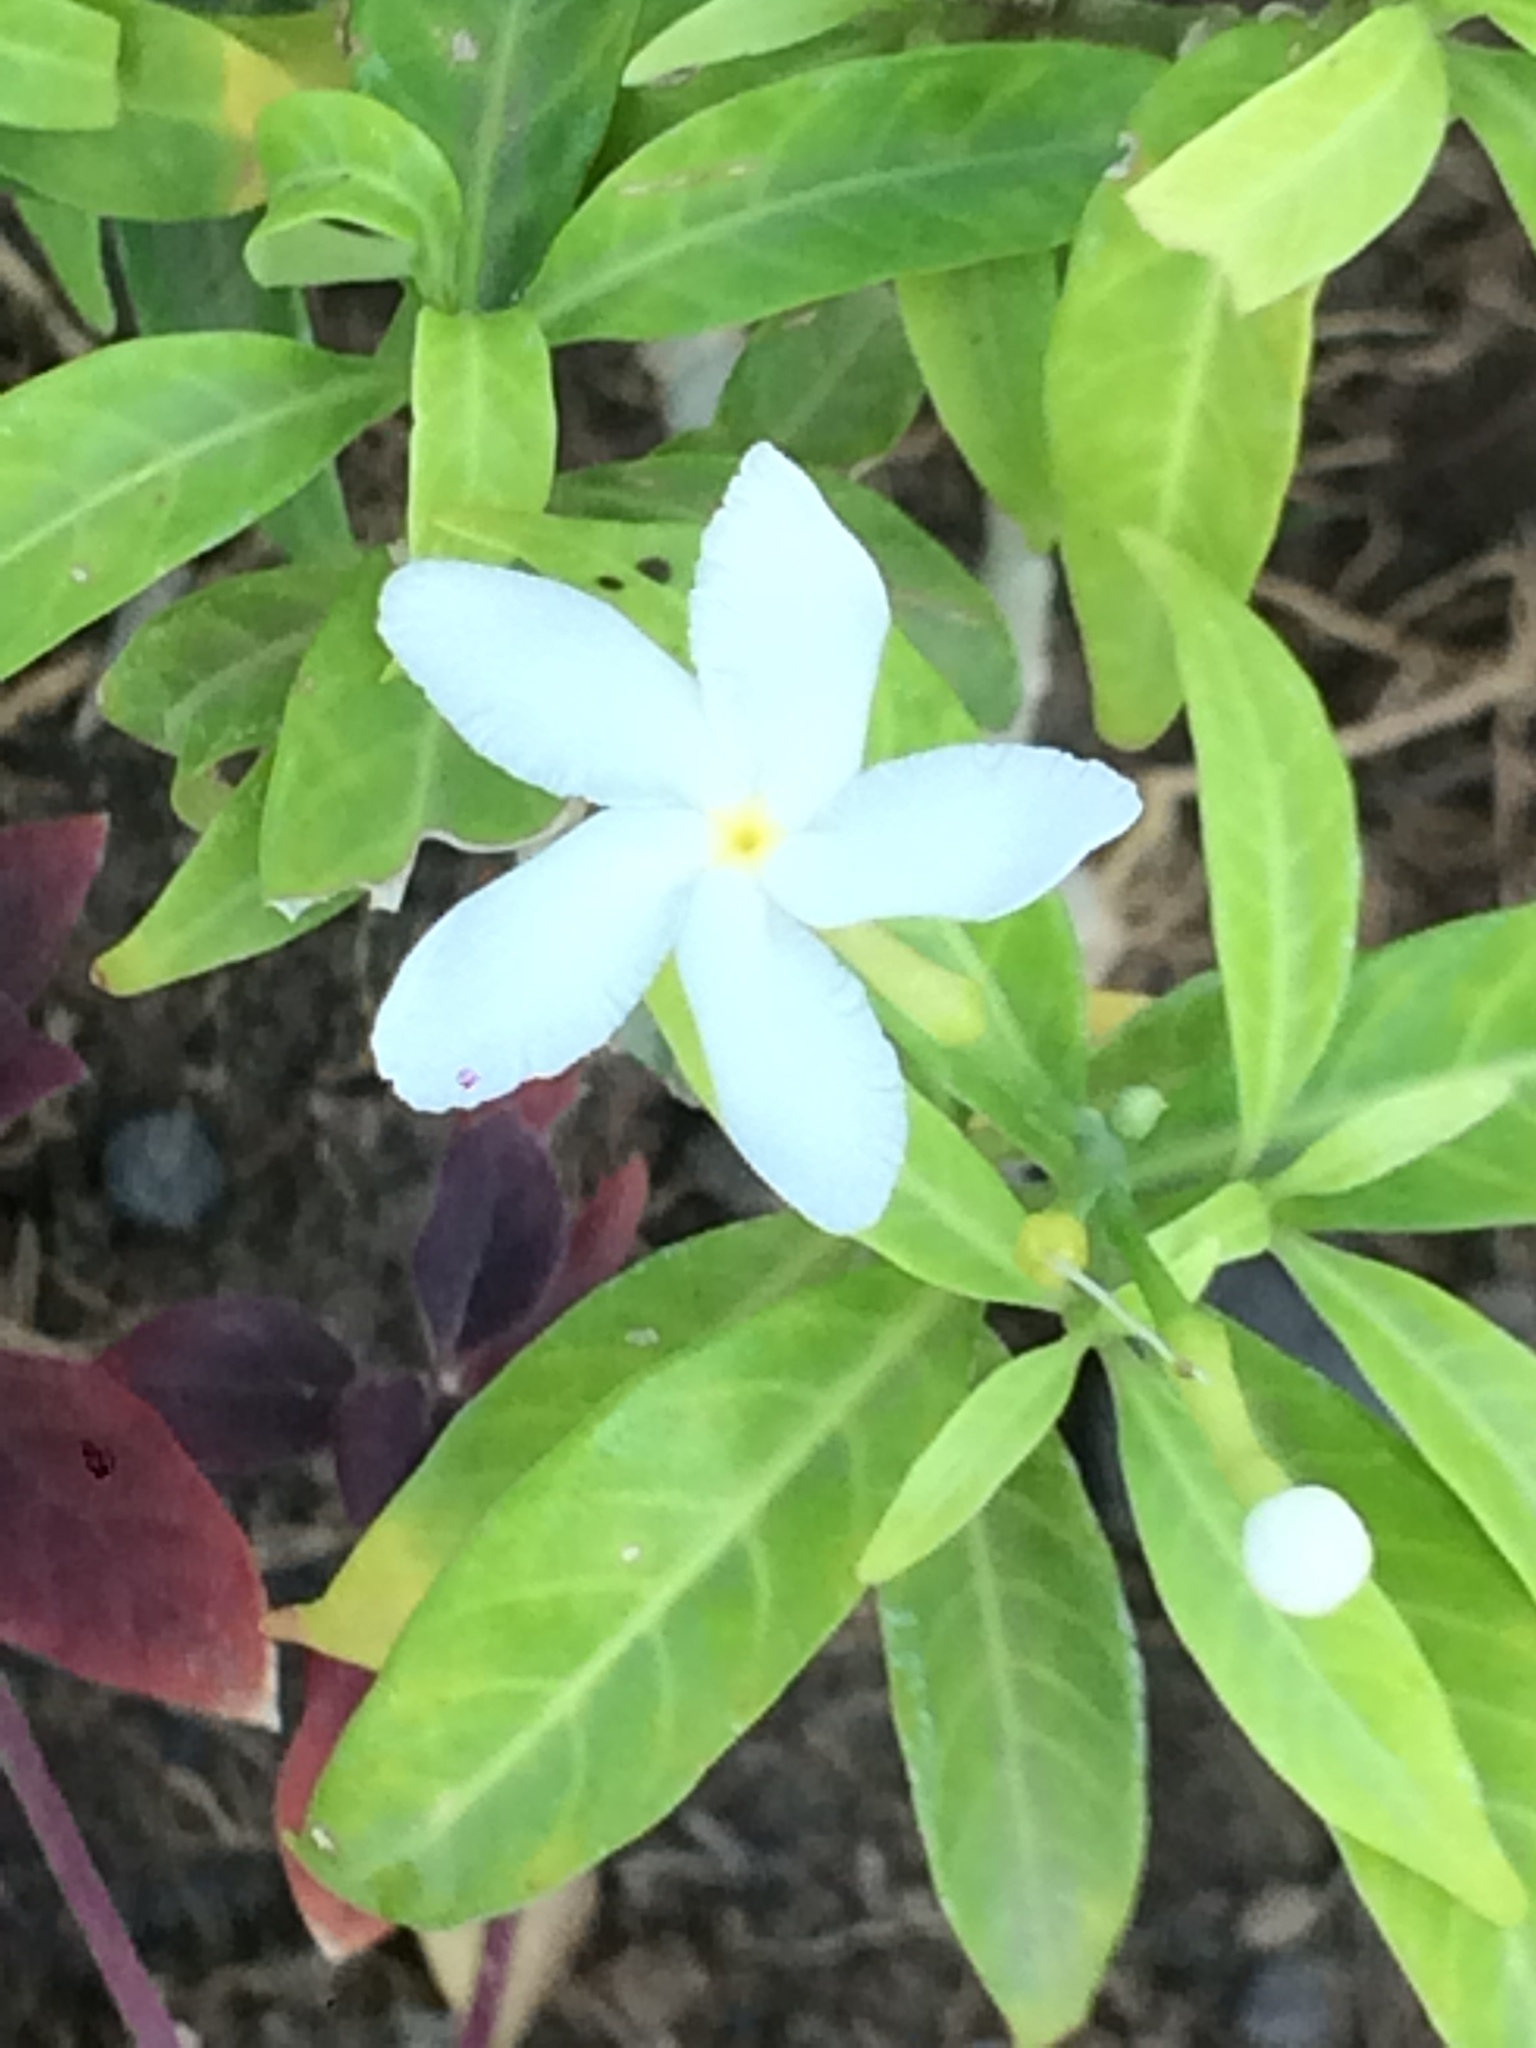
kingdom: Plantae
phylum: Tracheophyta
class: Magnoliopsida
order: Gentianales
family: Apocynaceae
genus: Tabernaemontana
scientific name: Tabernaemontana divaricata
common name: Pinwheelflower
